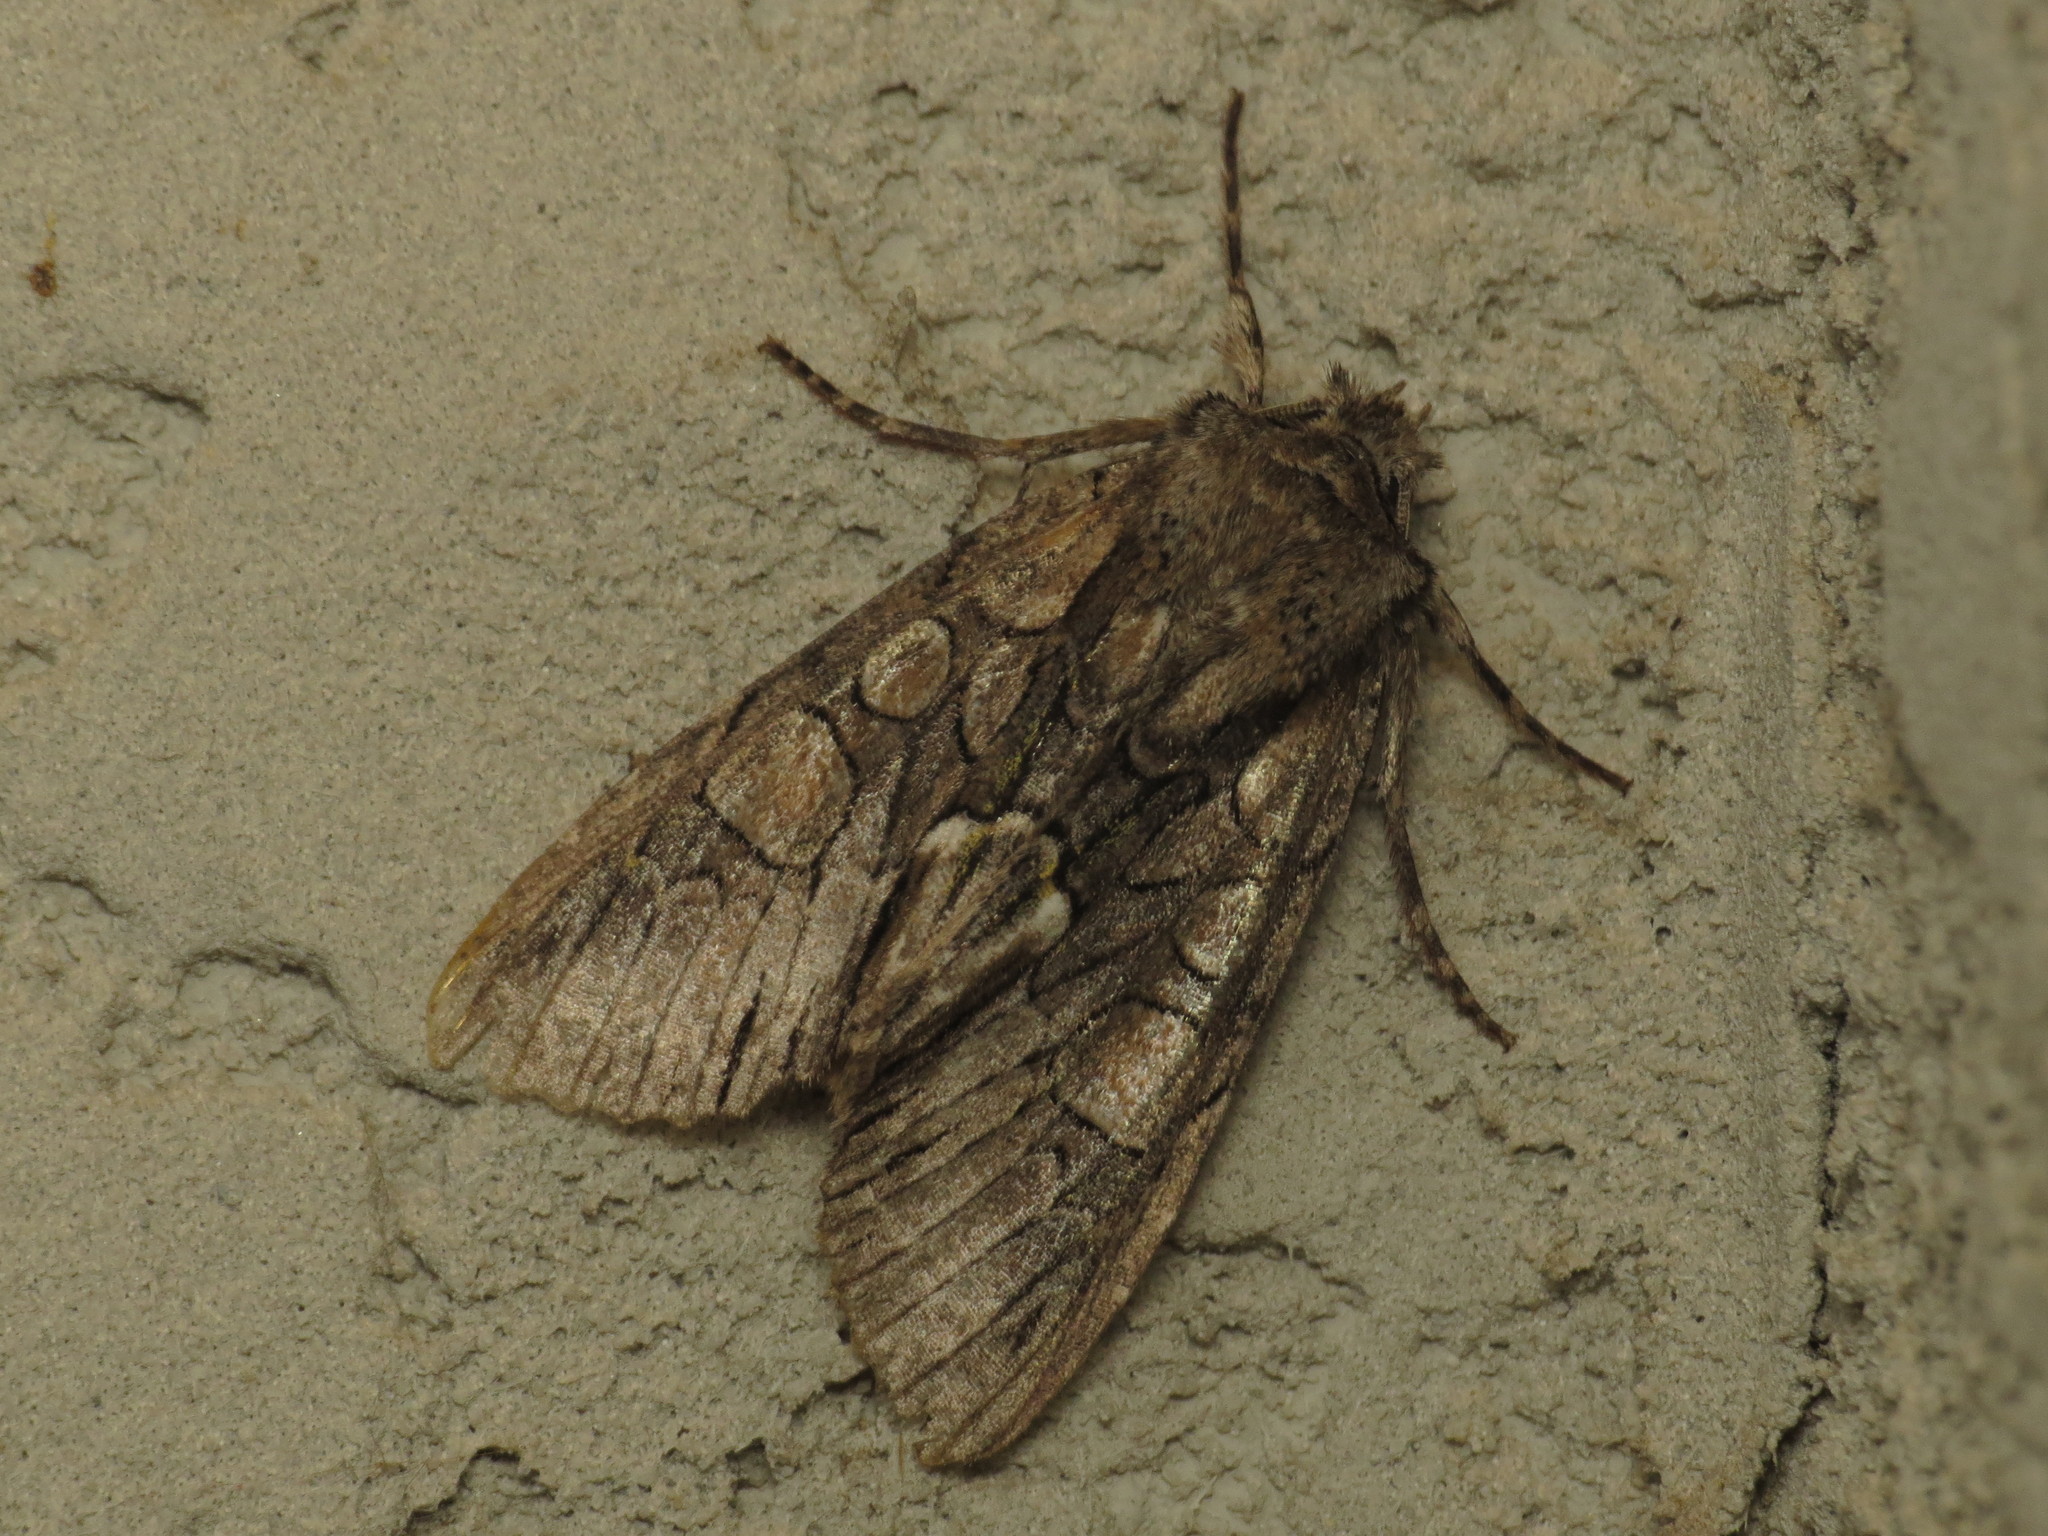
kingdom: Animalia
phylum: Arthropoda
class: Insecta
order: Lepidoptera
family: Noctuidae
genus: Belosticta
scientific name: Belosticta cinerea
